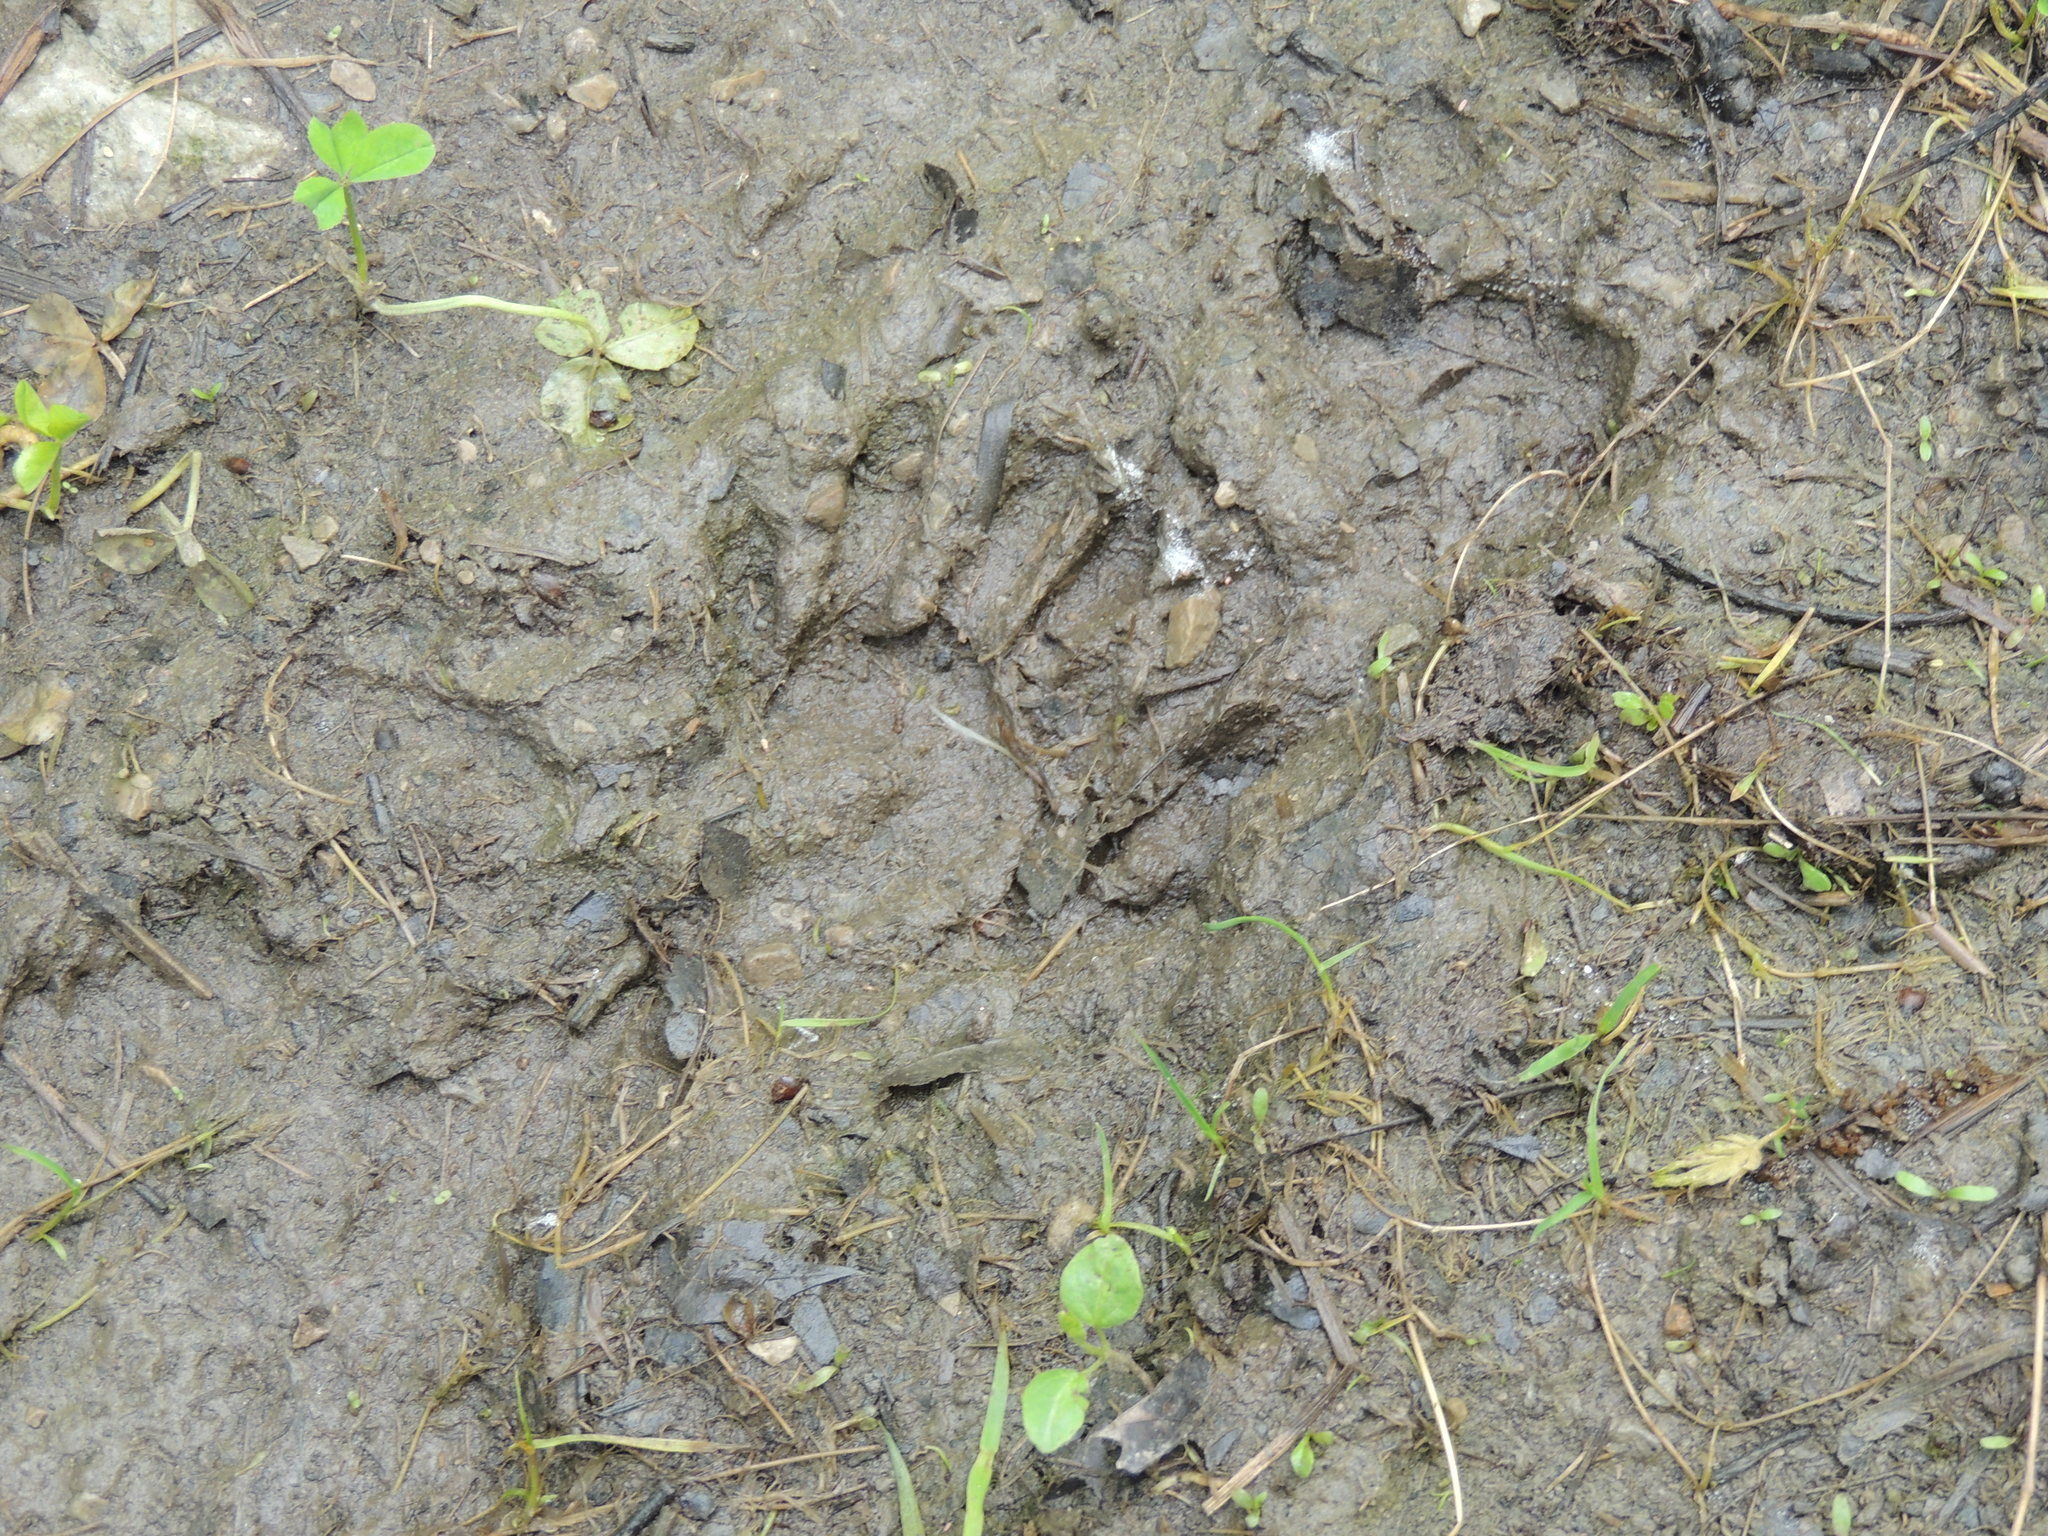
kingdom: Animalia
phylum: Chordata
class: Mammalia
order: Carnivora
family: Procyonidae
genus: Procyon
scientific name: Procyon lotor
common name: Raccoon
